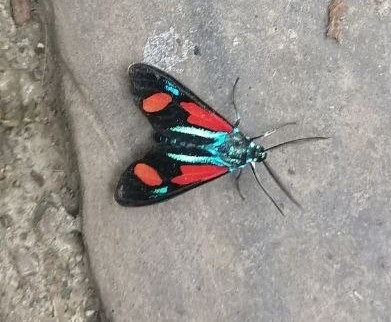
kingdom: Animalia
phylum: Arthropoda
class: Insecta
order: Lepidoptera
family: Erebidae
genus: Cyanopepla
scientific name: Cyanopepla bella
